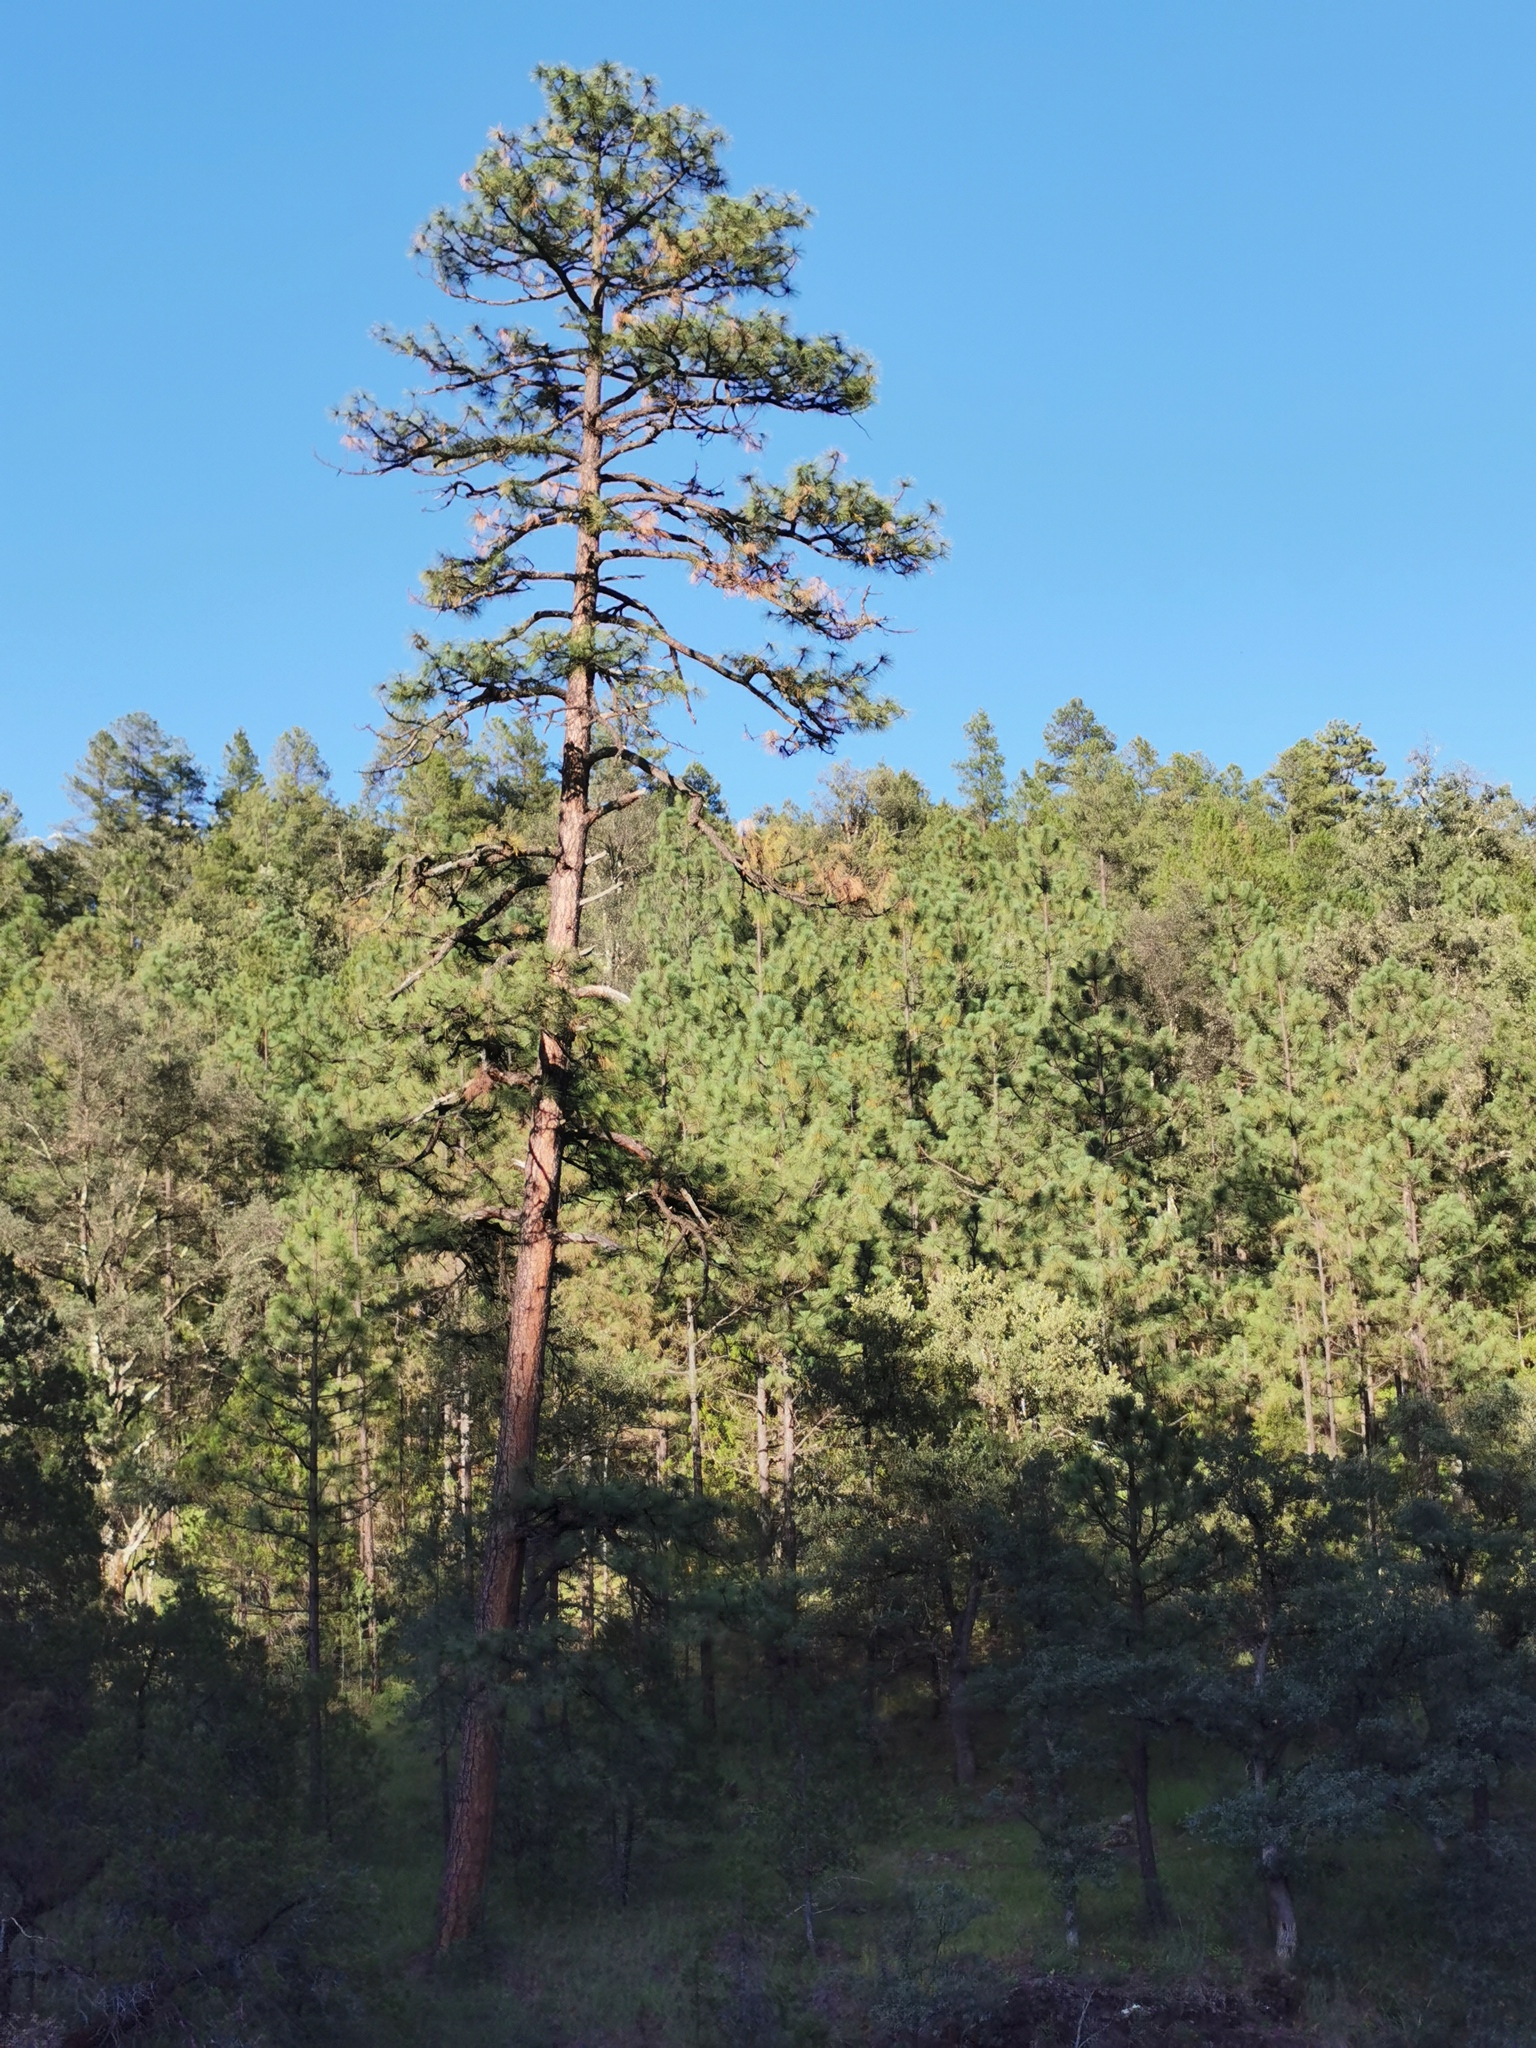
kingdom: Plantae
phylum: Tracheophyta
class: Pinopsida
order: Pinales
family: Pinaceae
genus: Pinus
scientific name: Pinus ponderosa
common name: Western yellow-pine
